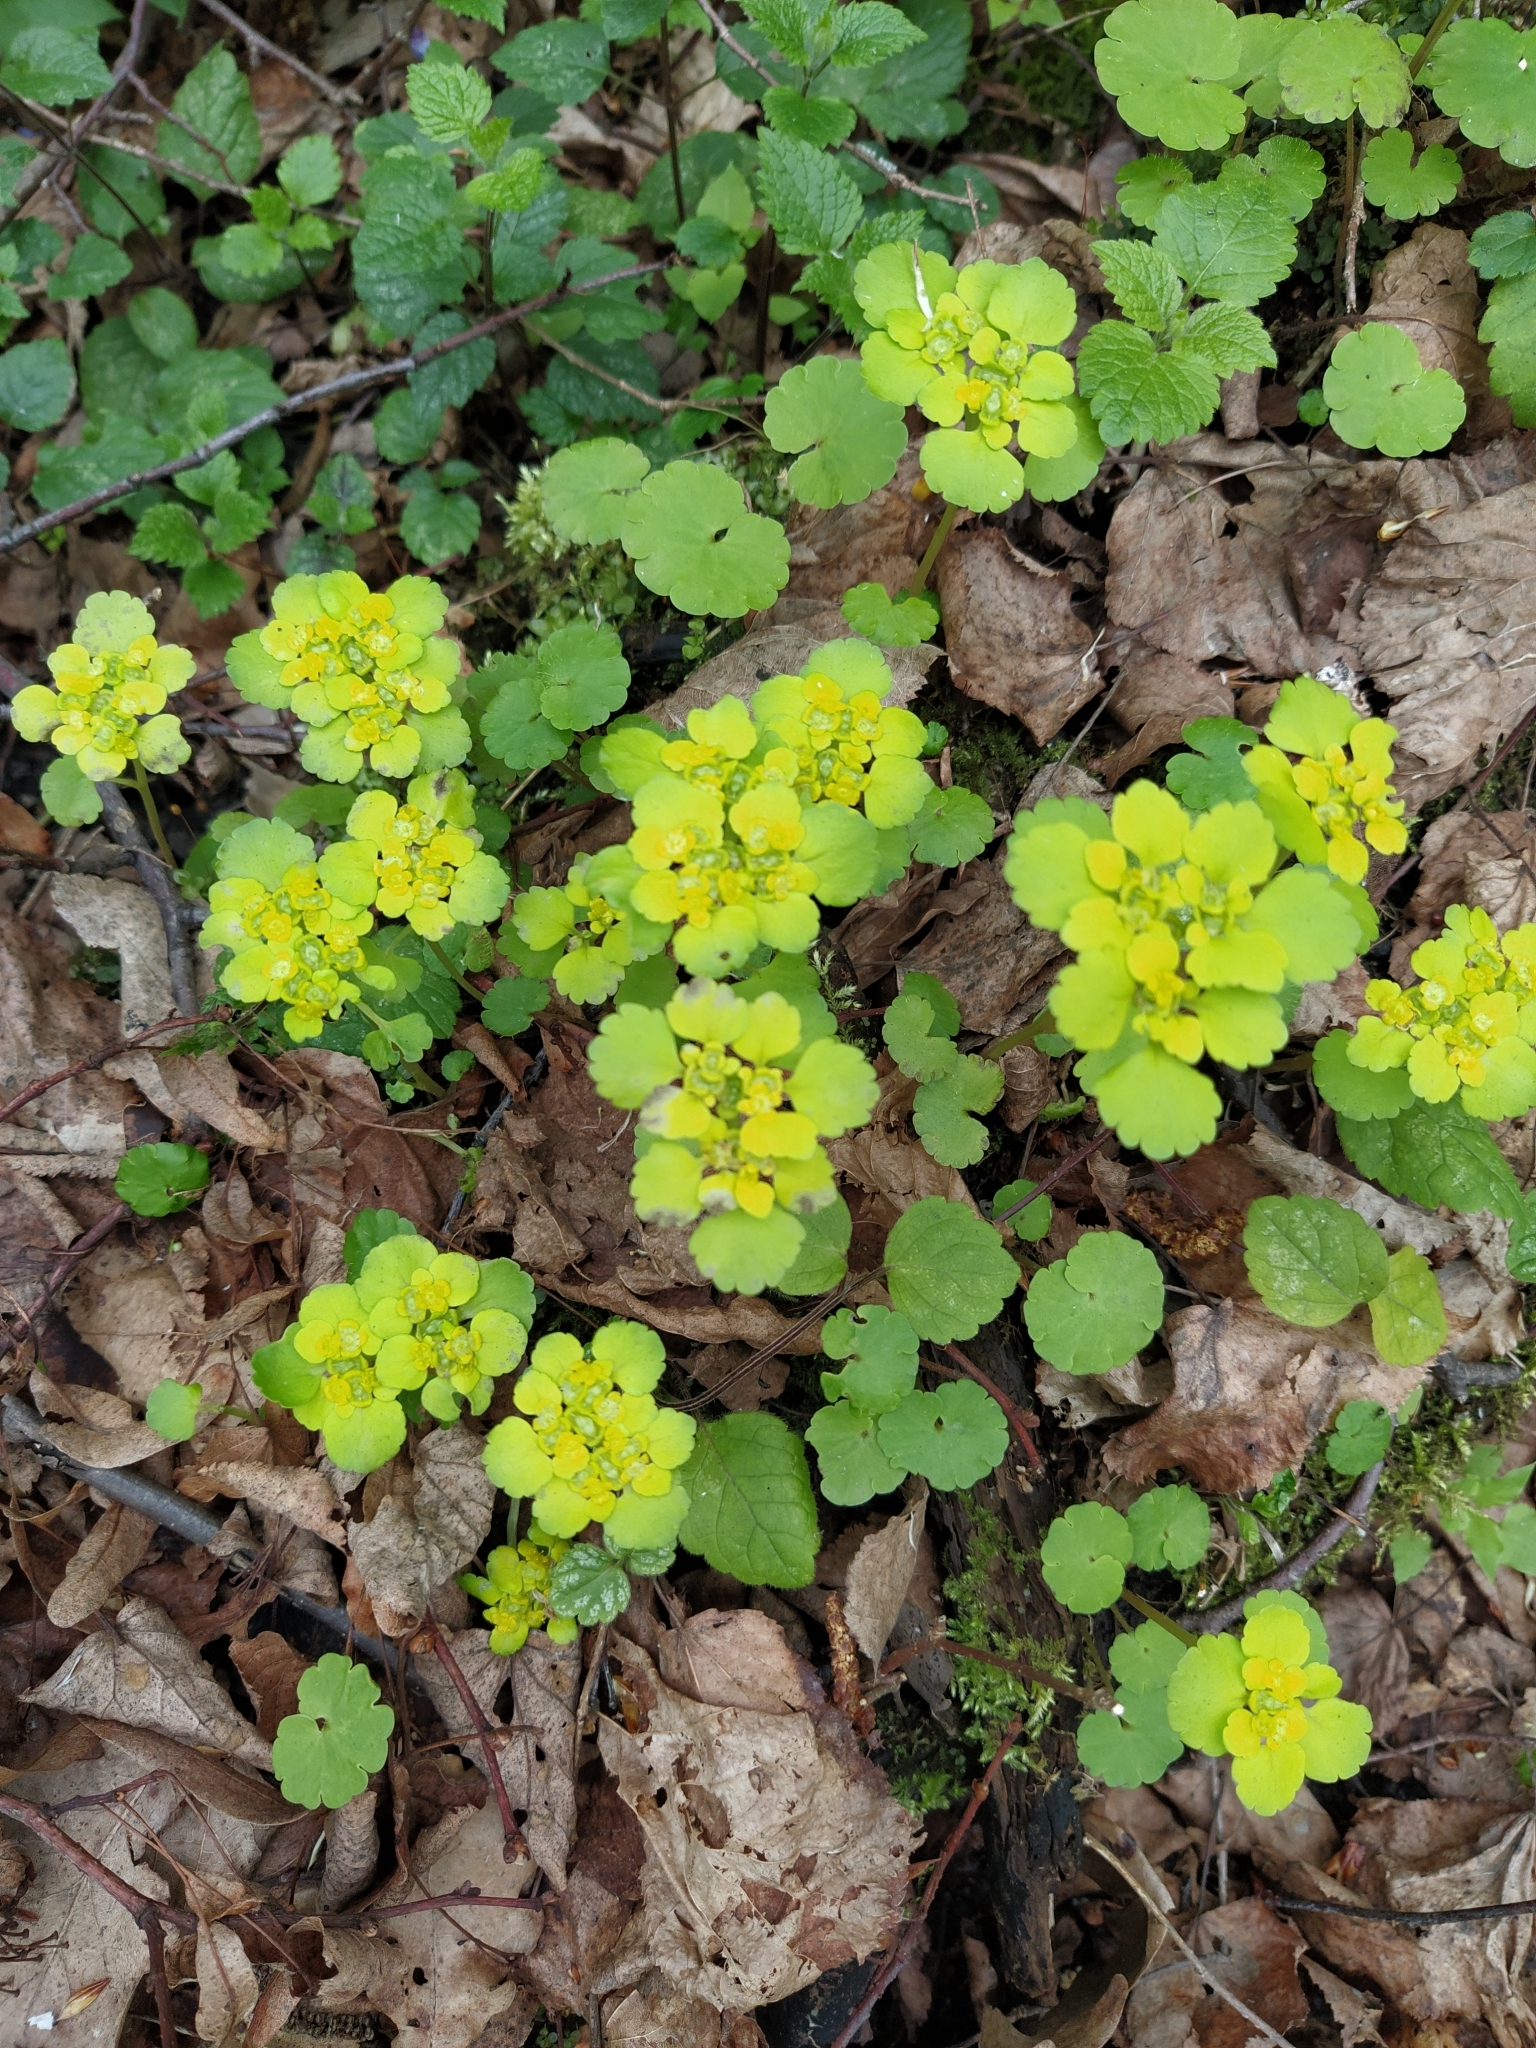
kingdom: Plantae
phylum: Tracheophyta
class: Magnoliopsida
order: Saxifragales
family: Saxifragaceae
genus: Chrysosplenium
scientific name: Chrysosplenium alternifolium
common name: Alternate-leaved golden-saxifrage
